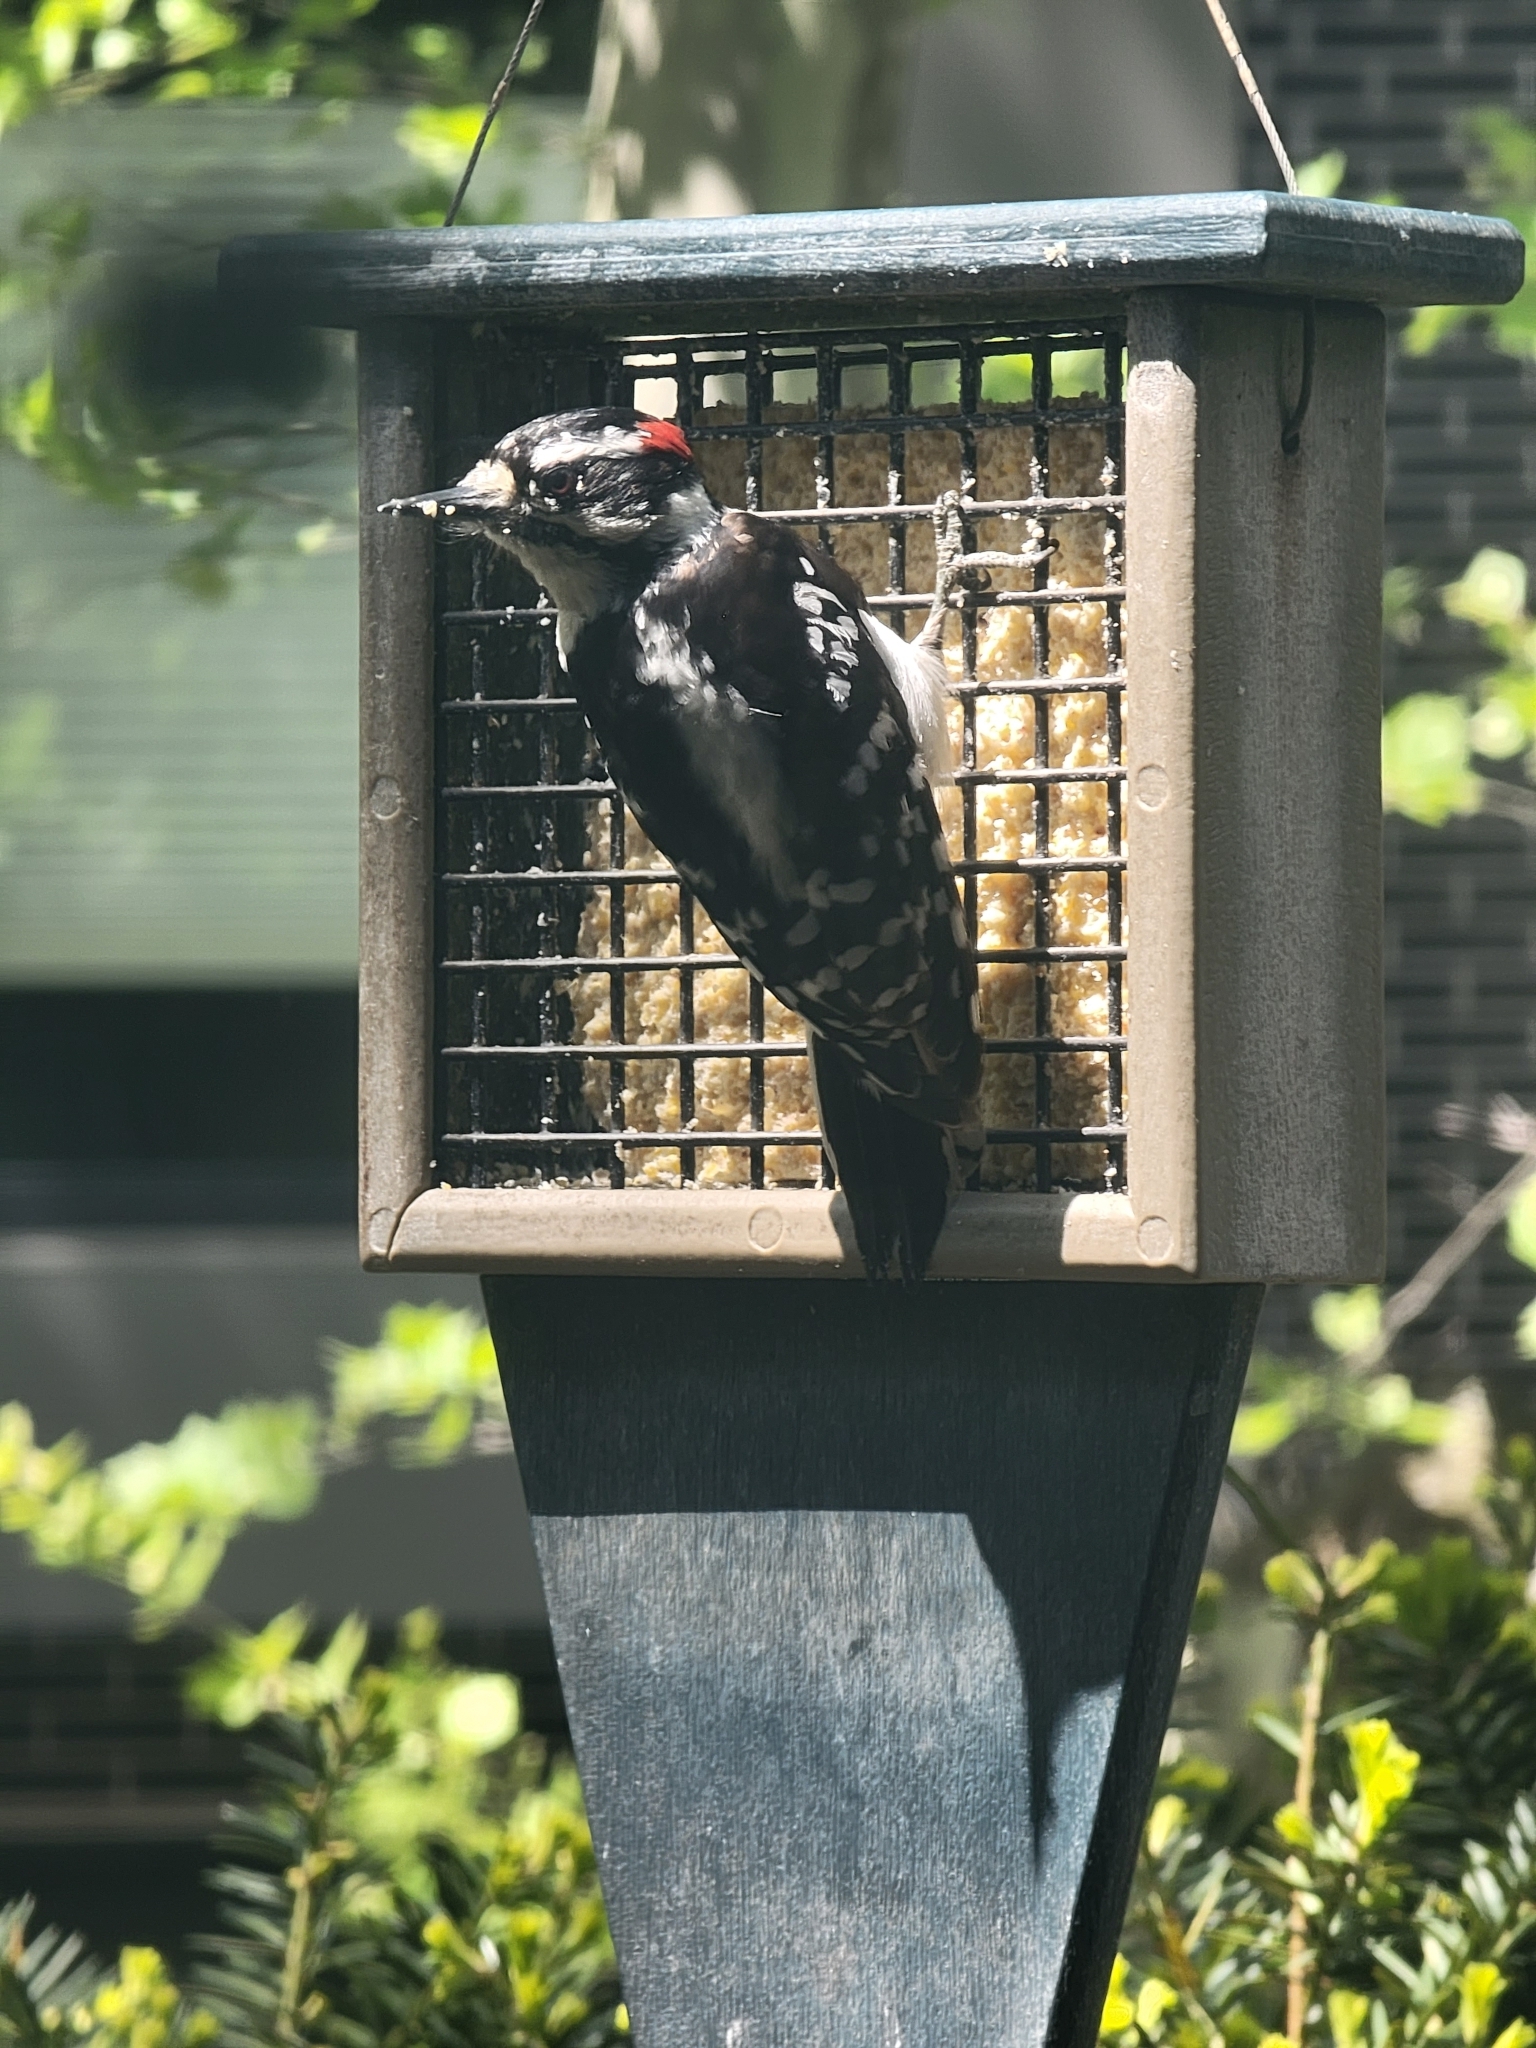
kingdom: Animalia
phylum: Chordata
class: Aves
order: Piciformes
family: Picidae
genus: Dryobates
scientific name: Dryobates pubescens
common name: Downy woodpecker
